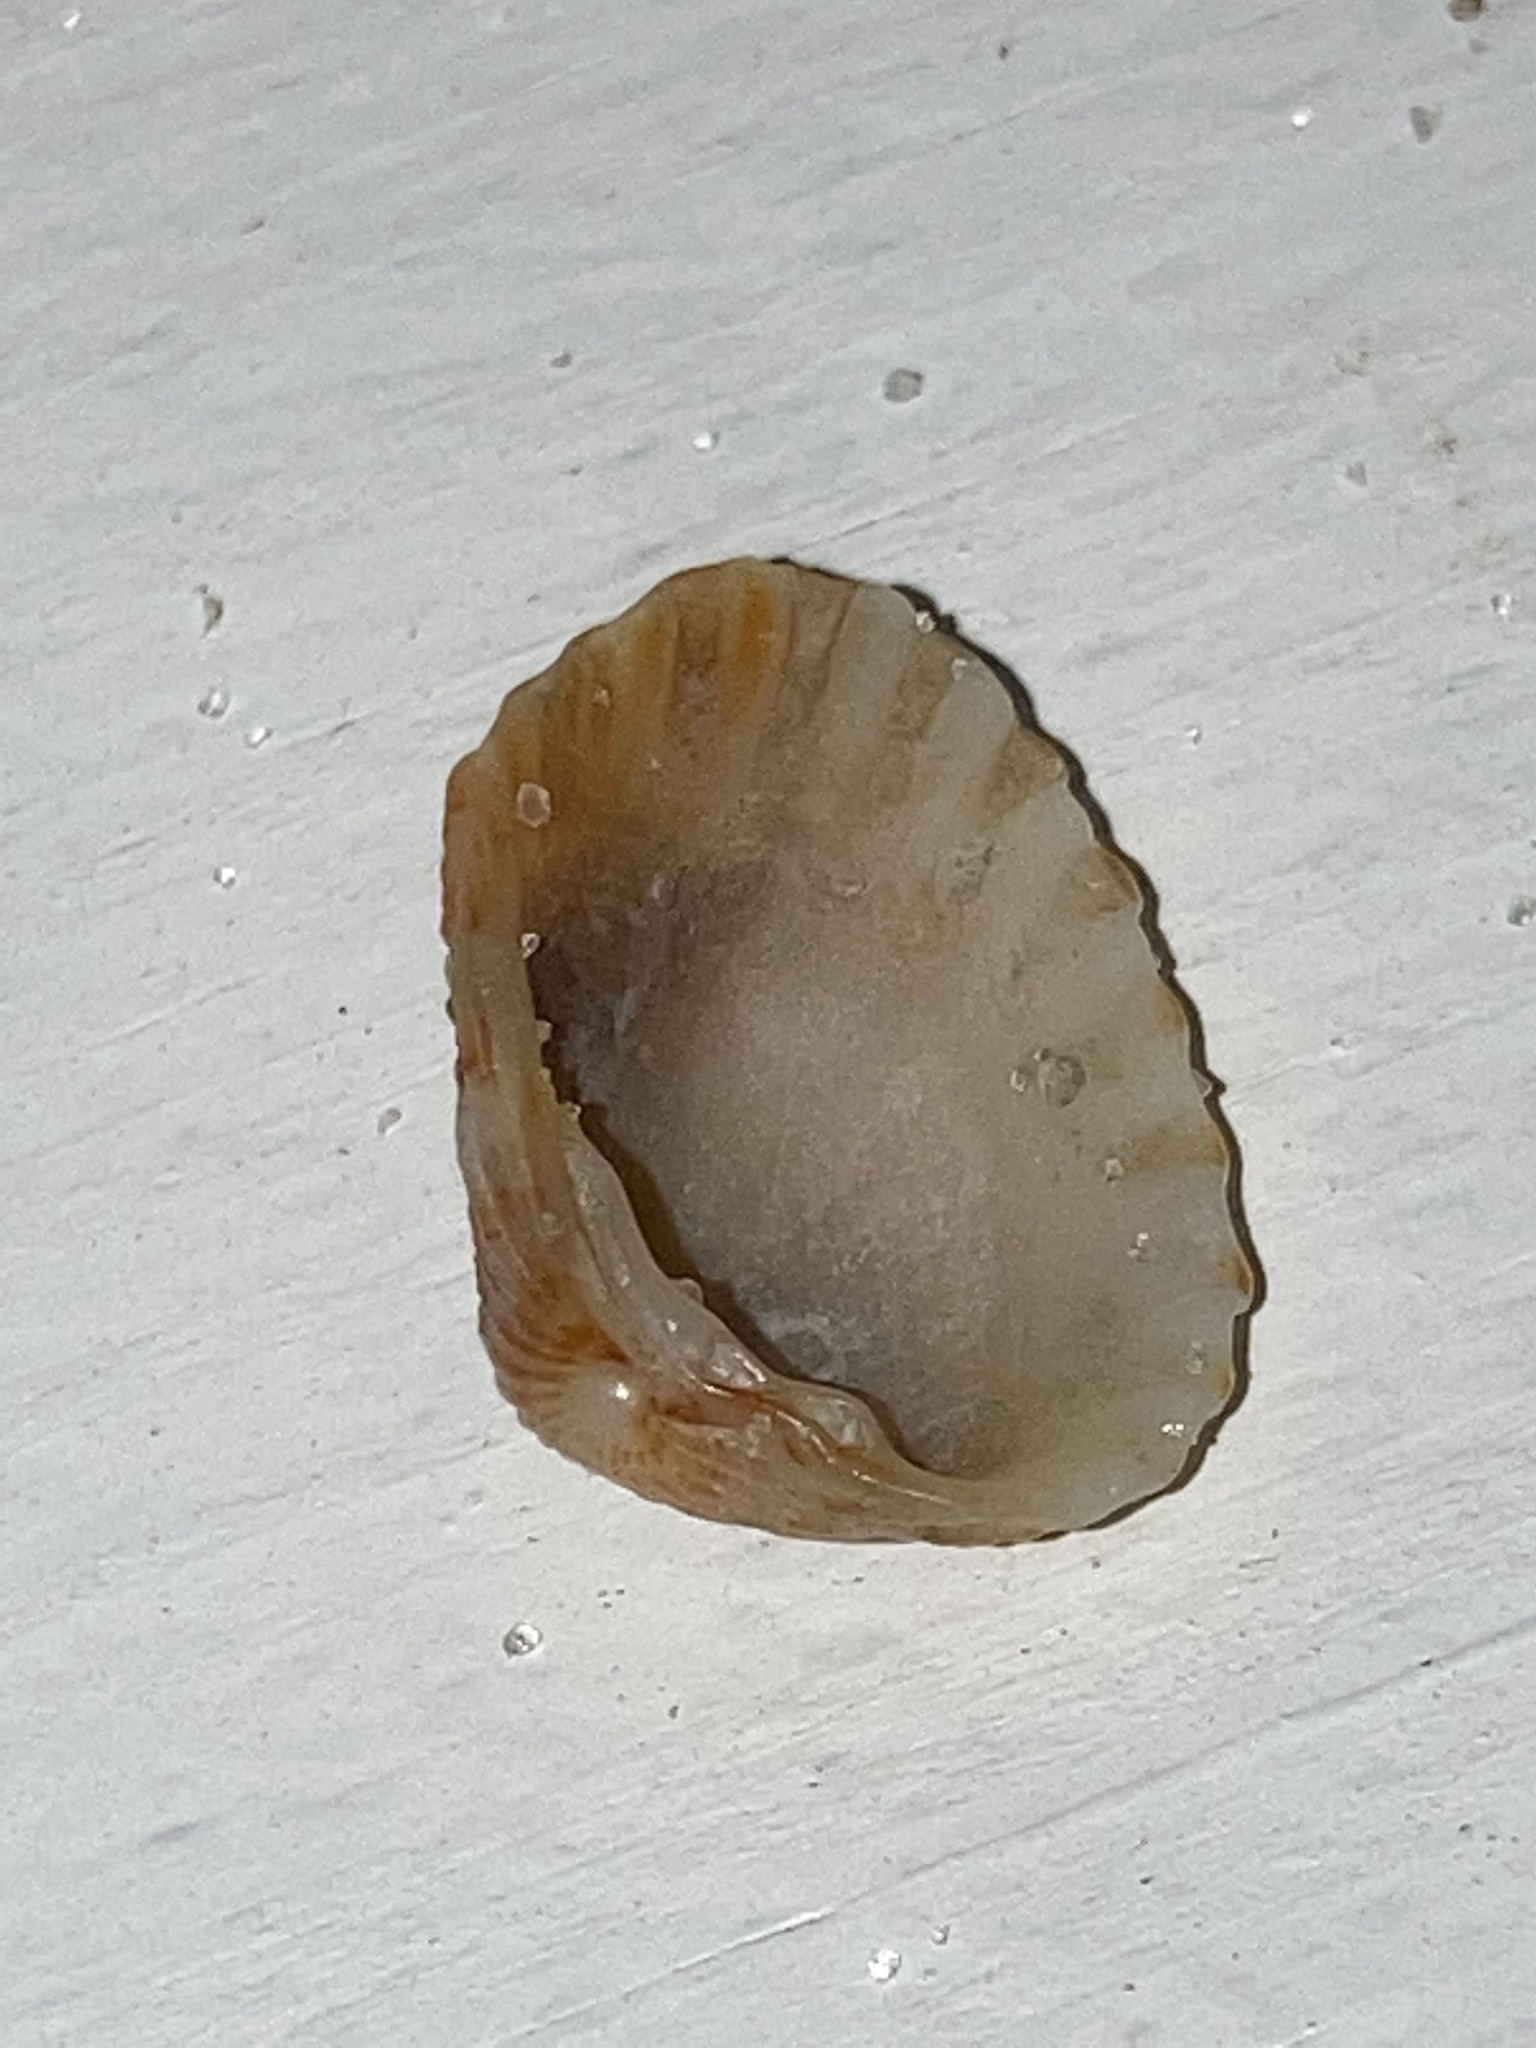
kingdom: Animalia
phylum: Mollusca
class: Bivalvia
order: Carditida
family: Carditidae
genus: Cardites
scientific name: Cardites floridanus
